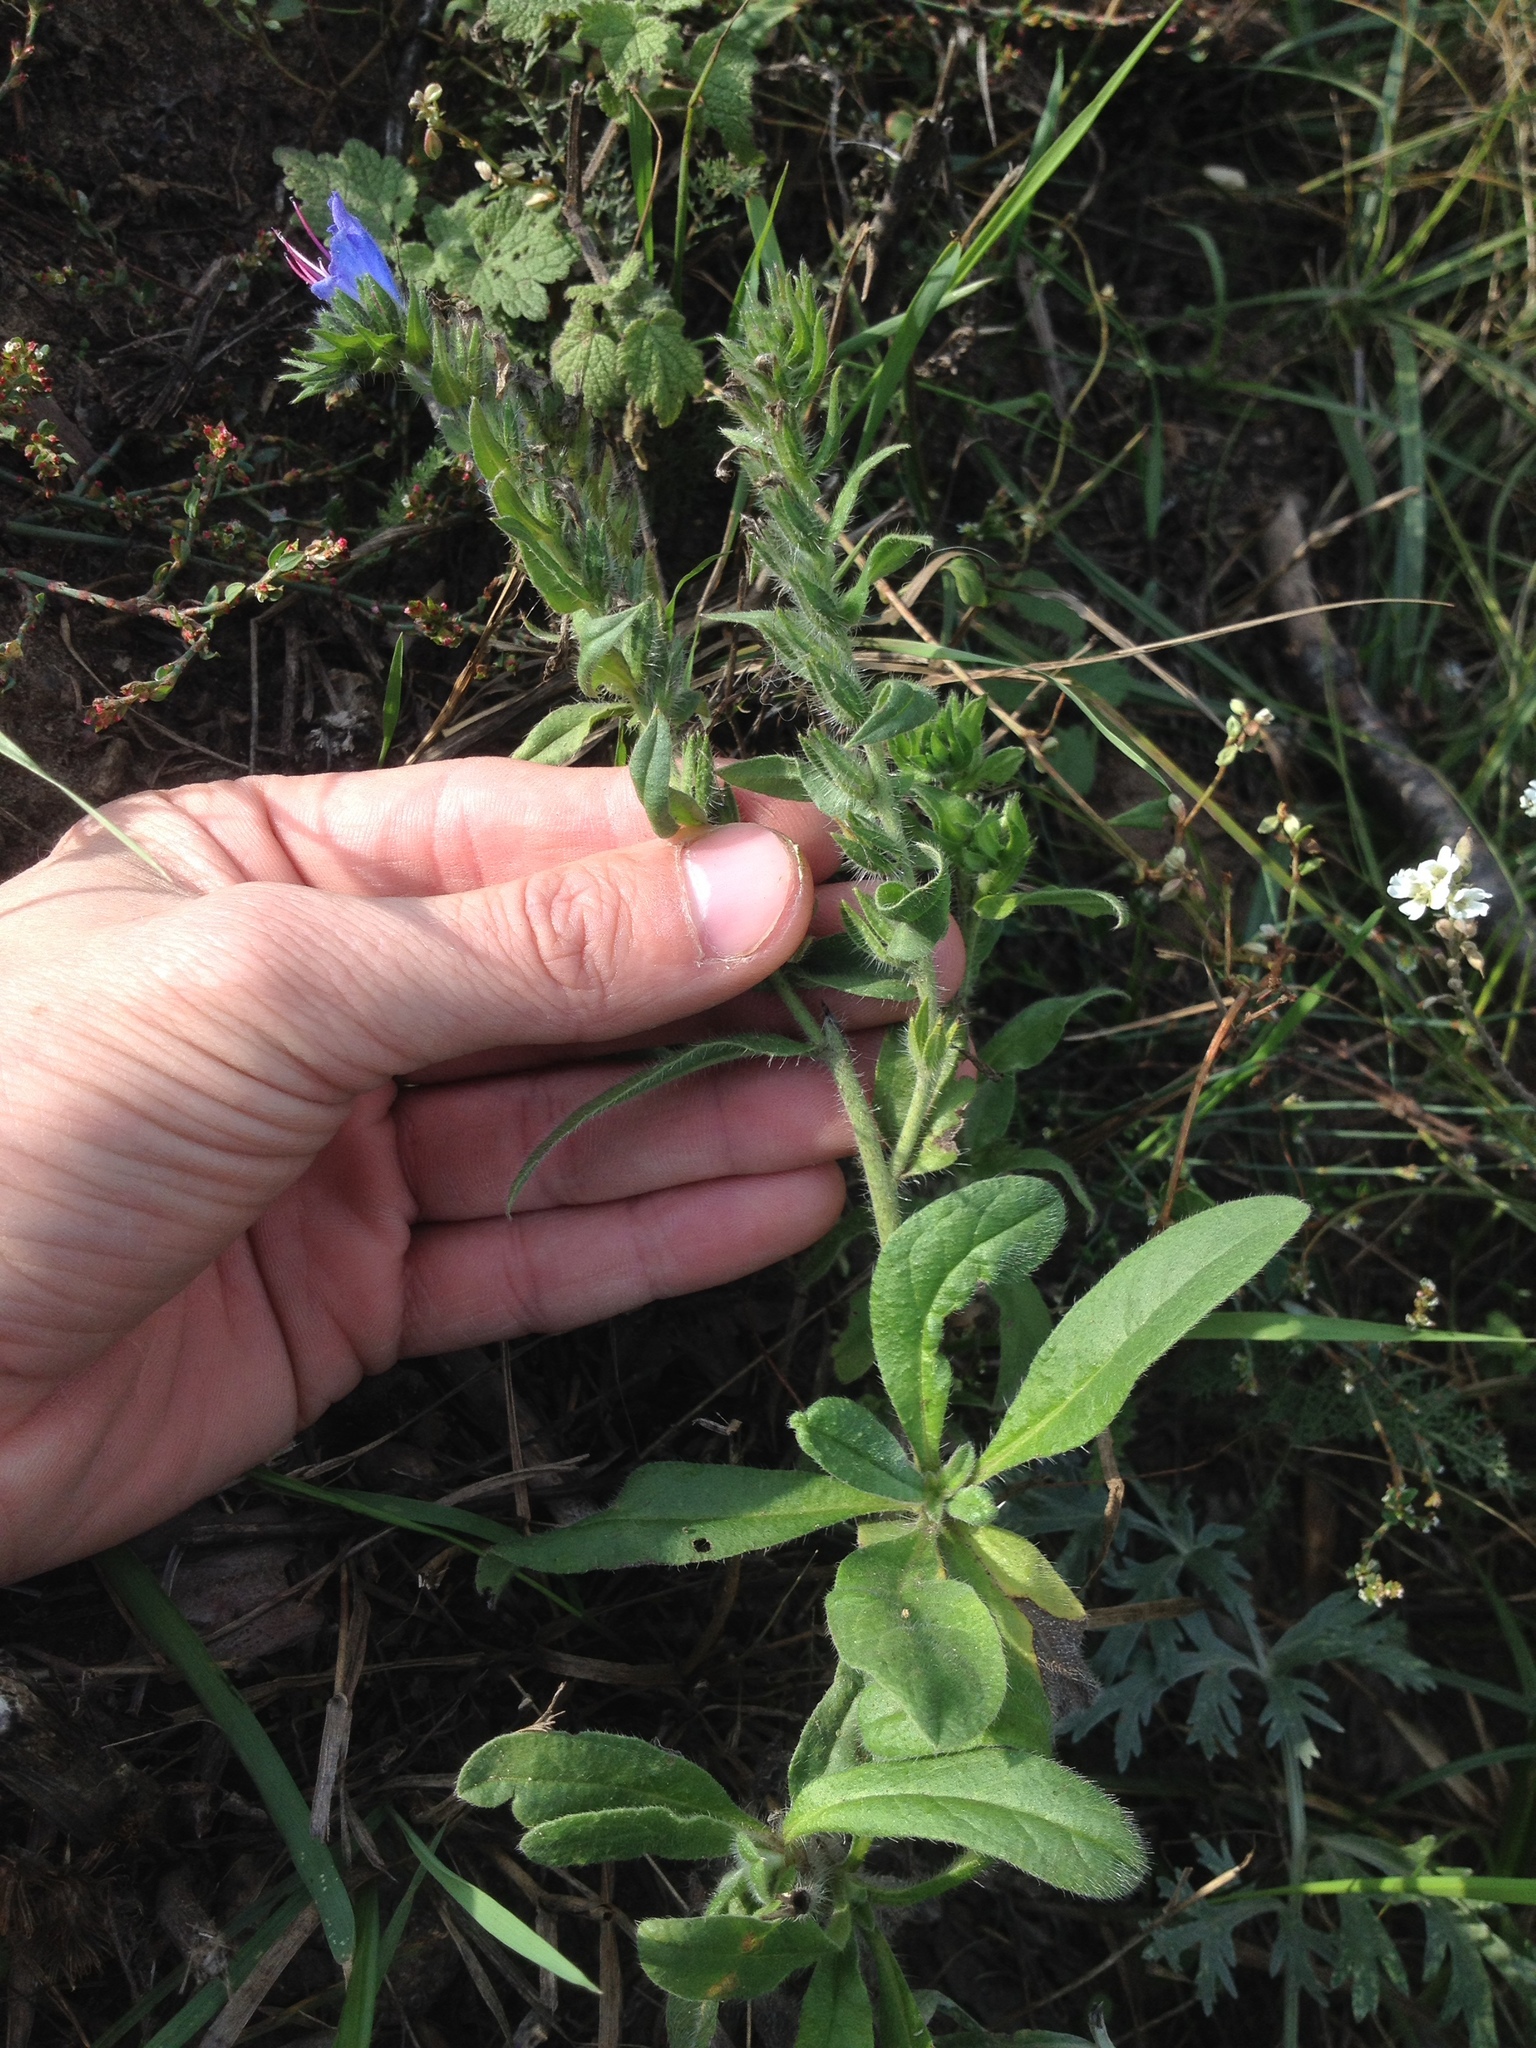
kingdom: Plantae
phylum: Tracheophyta
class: Magnoliopsida
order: Boraginales
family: Boraginaceae
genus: Echium
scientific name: Echium vulgare
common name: Common viper's bugloss
